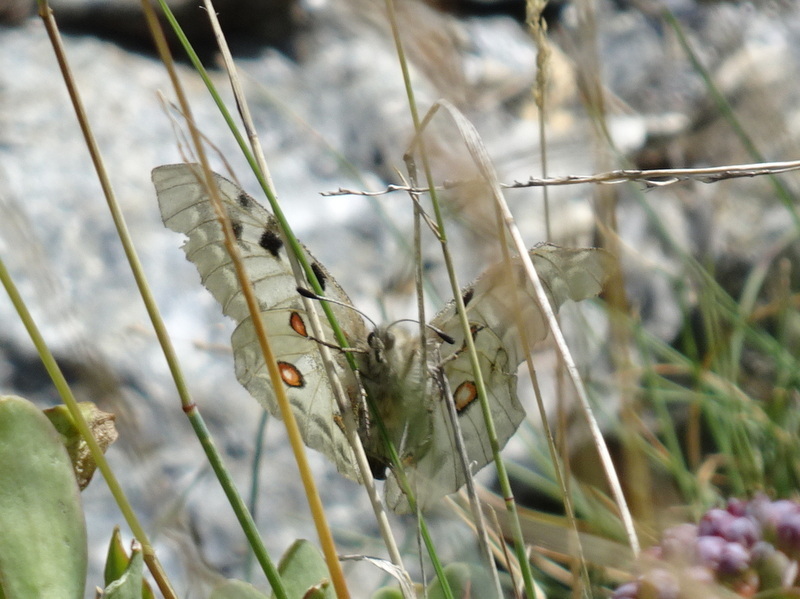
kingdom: Animalia
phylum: Arthropoda
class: Insecta
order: Lepidoptera
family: Papilionidae
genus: Parnassius
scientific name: Parnassius apollo
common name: Apollo
